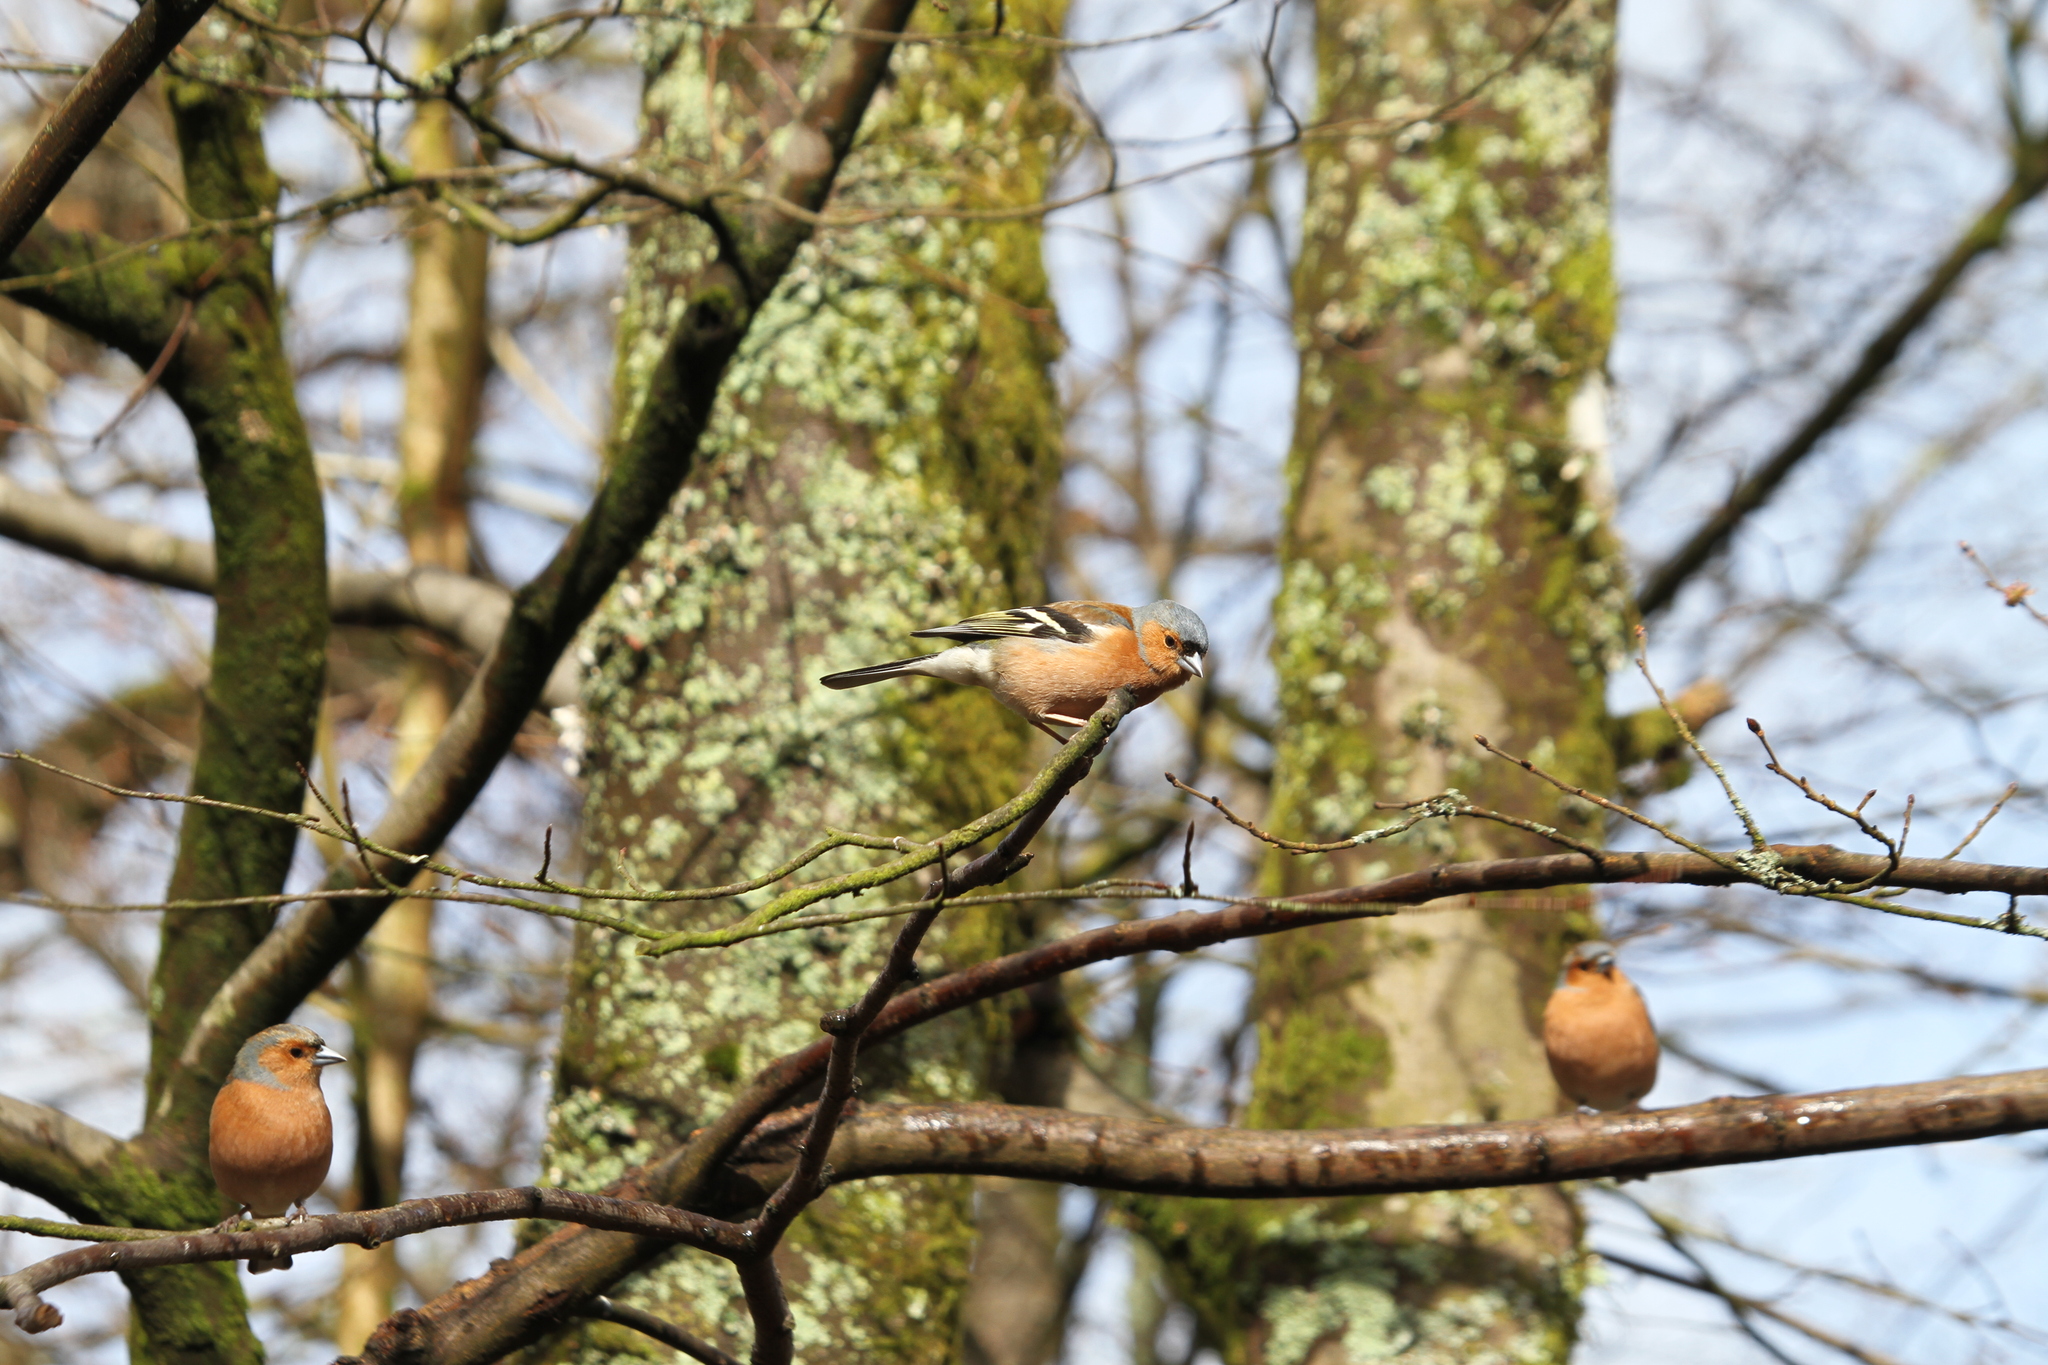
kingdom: Animalia
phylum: Chordata
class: Aves
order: Passeriformes
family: Fringillidae
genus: Fringilla
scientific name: Fringilla coelebs
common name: Common chaffinch
